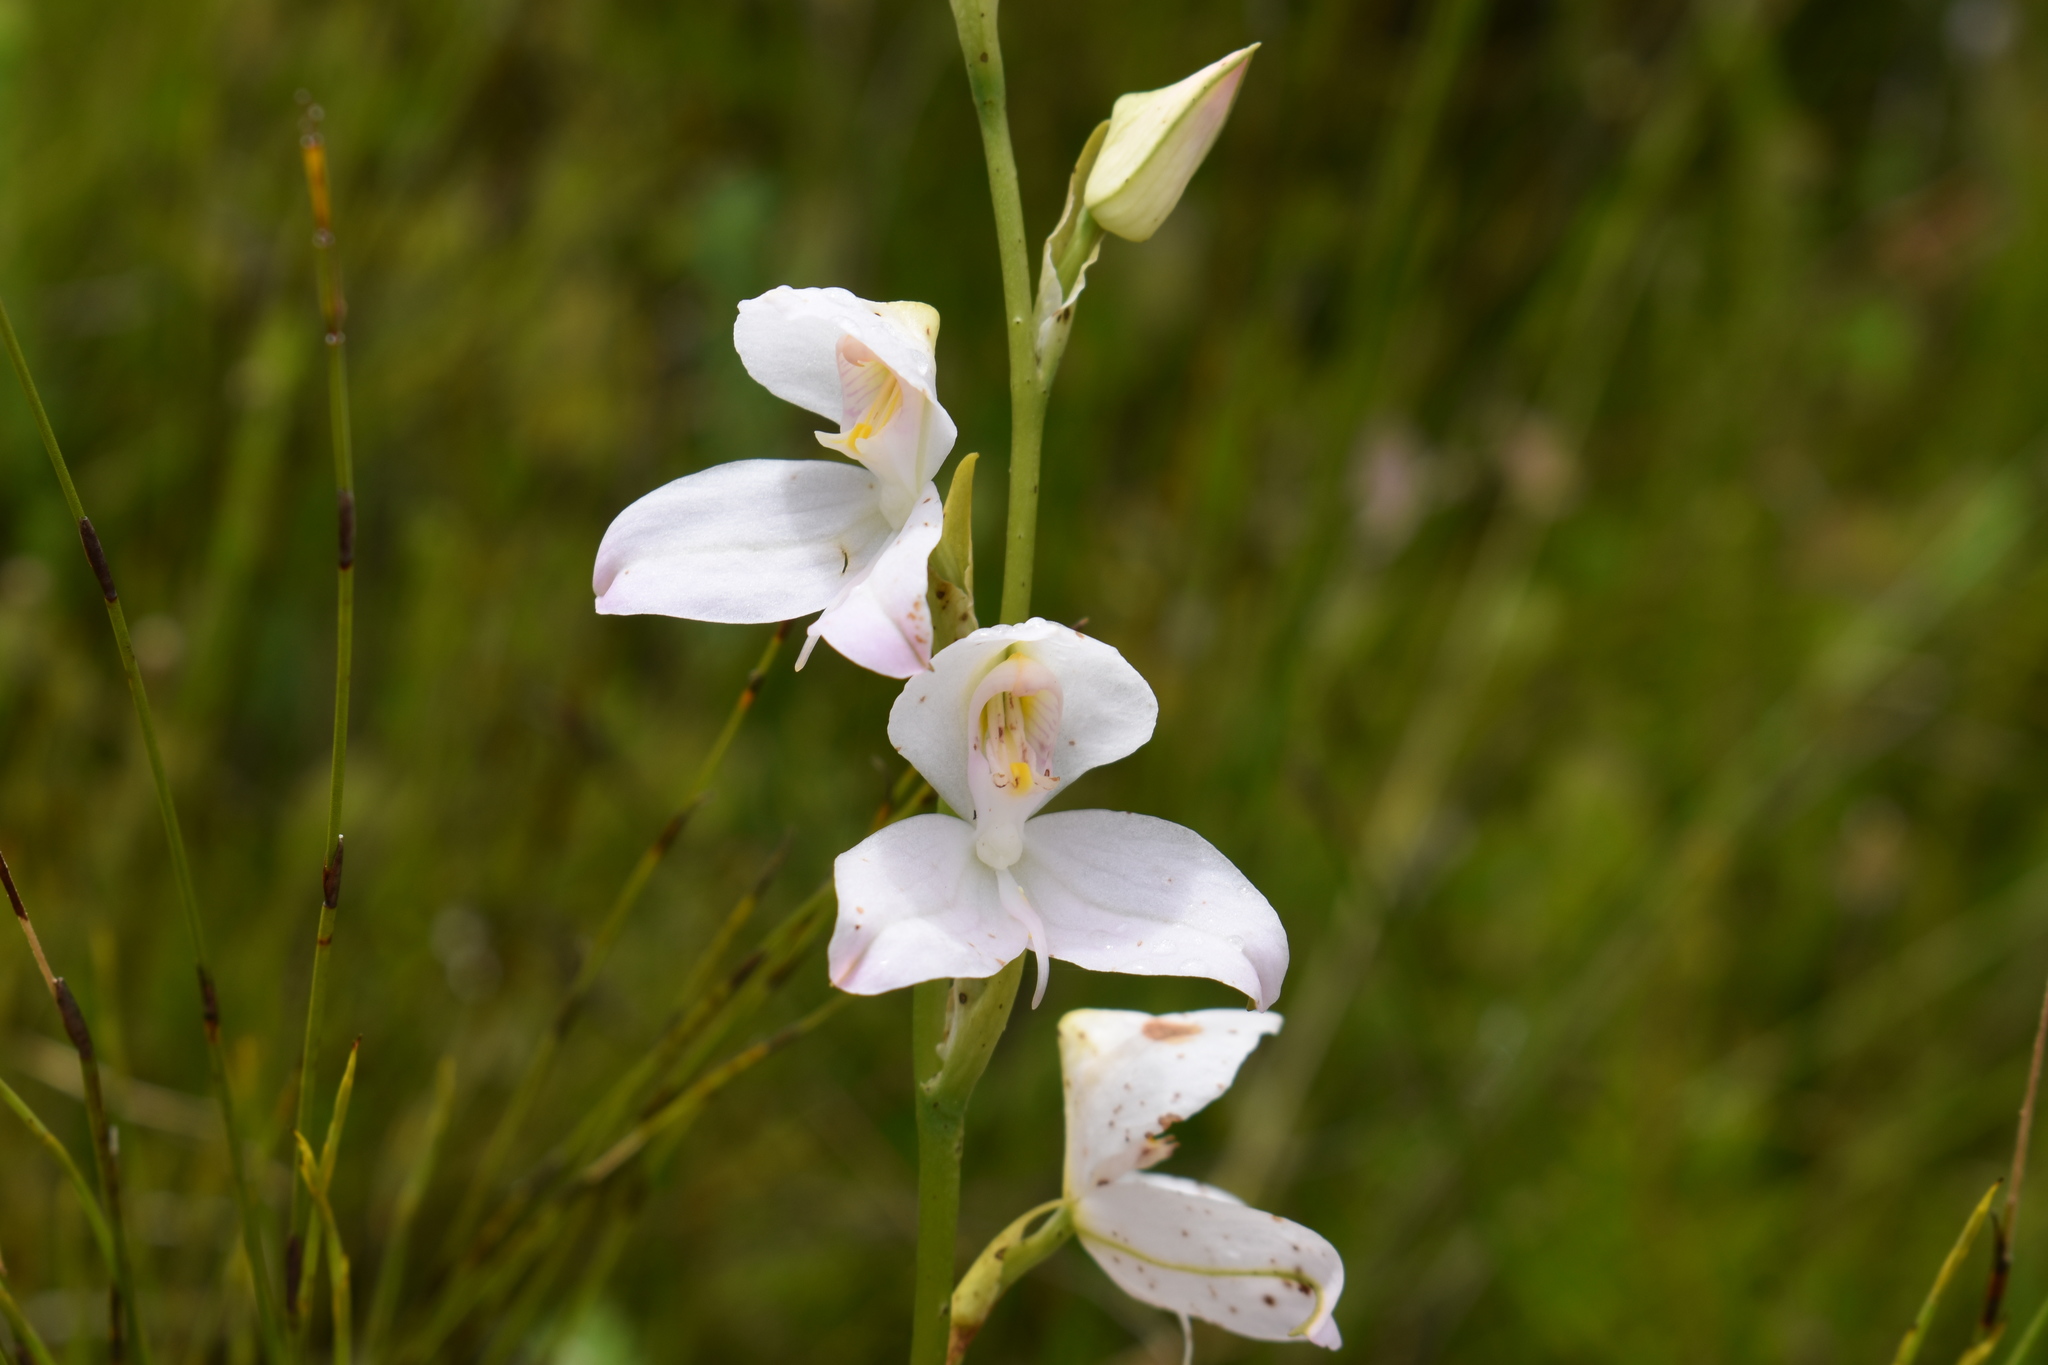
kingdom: Plantae
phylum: Tracheophyta
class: Liliopsida
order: Asparagales
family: Orchidaceae
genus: Disa
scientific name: Disa racemosa
